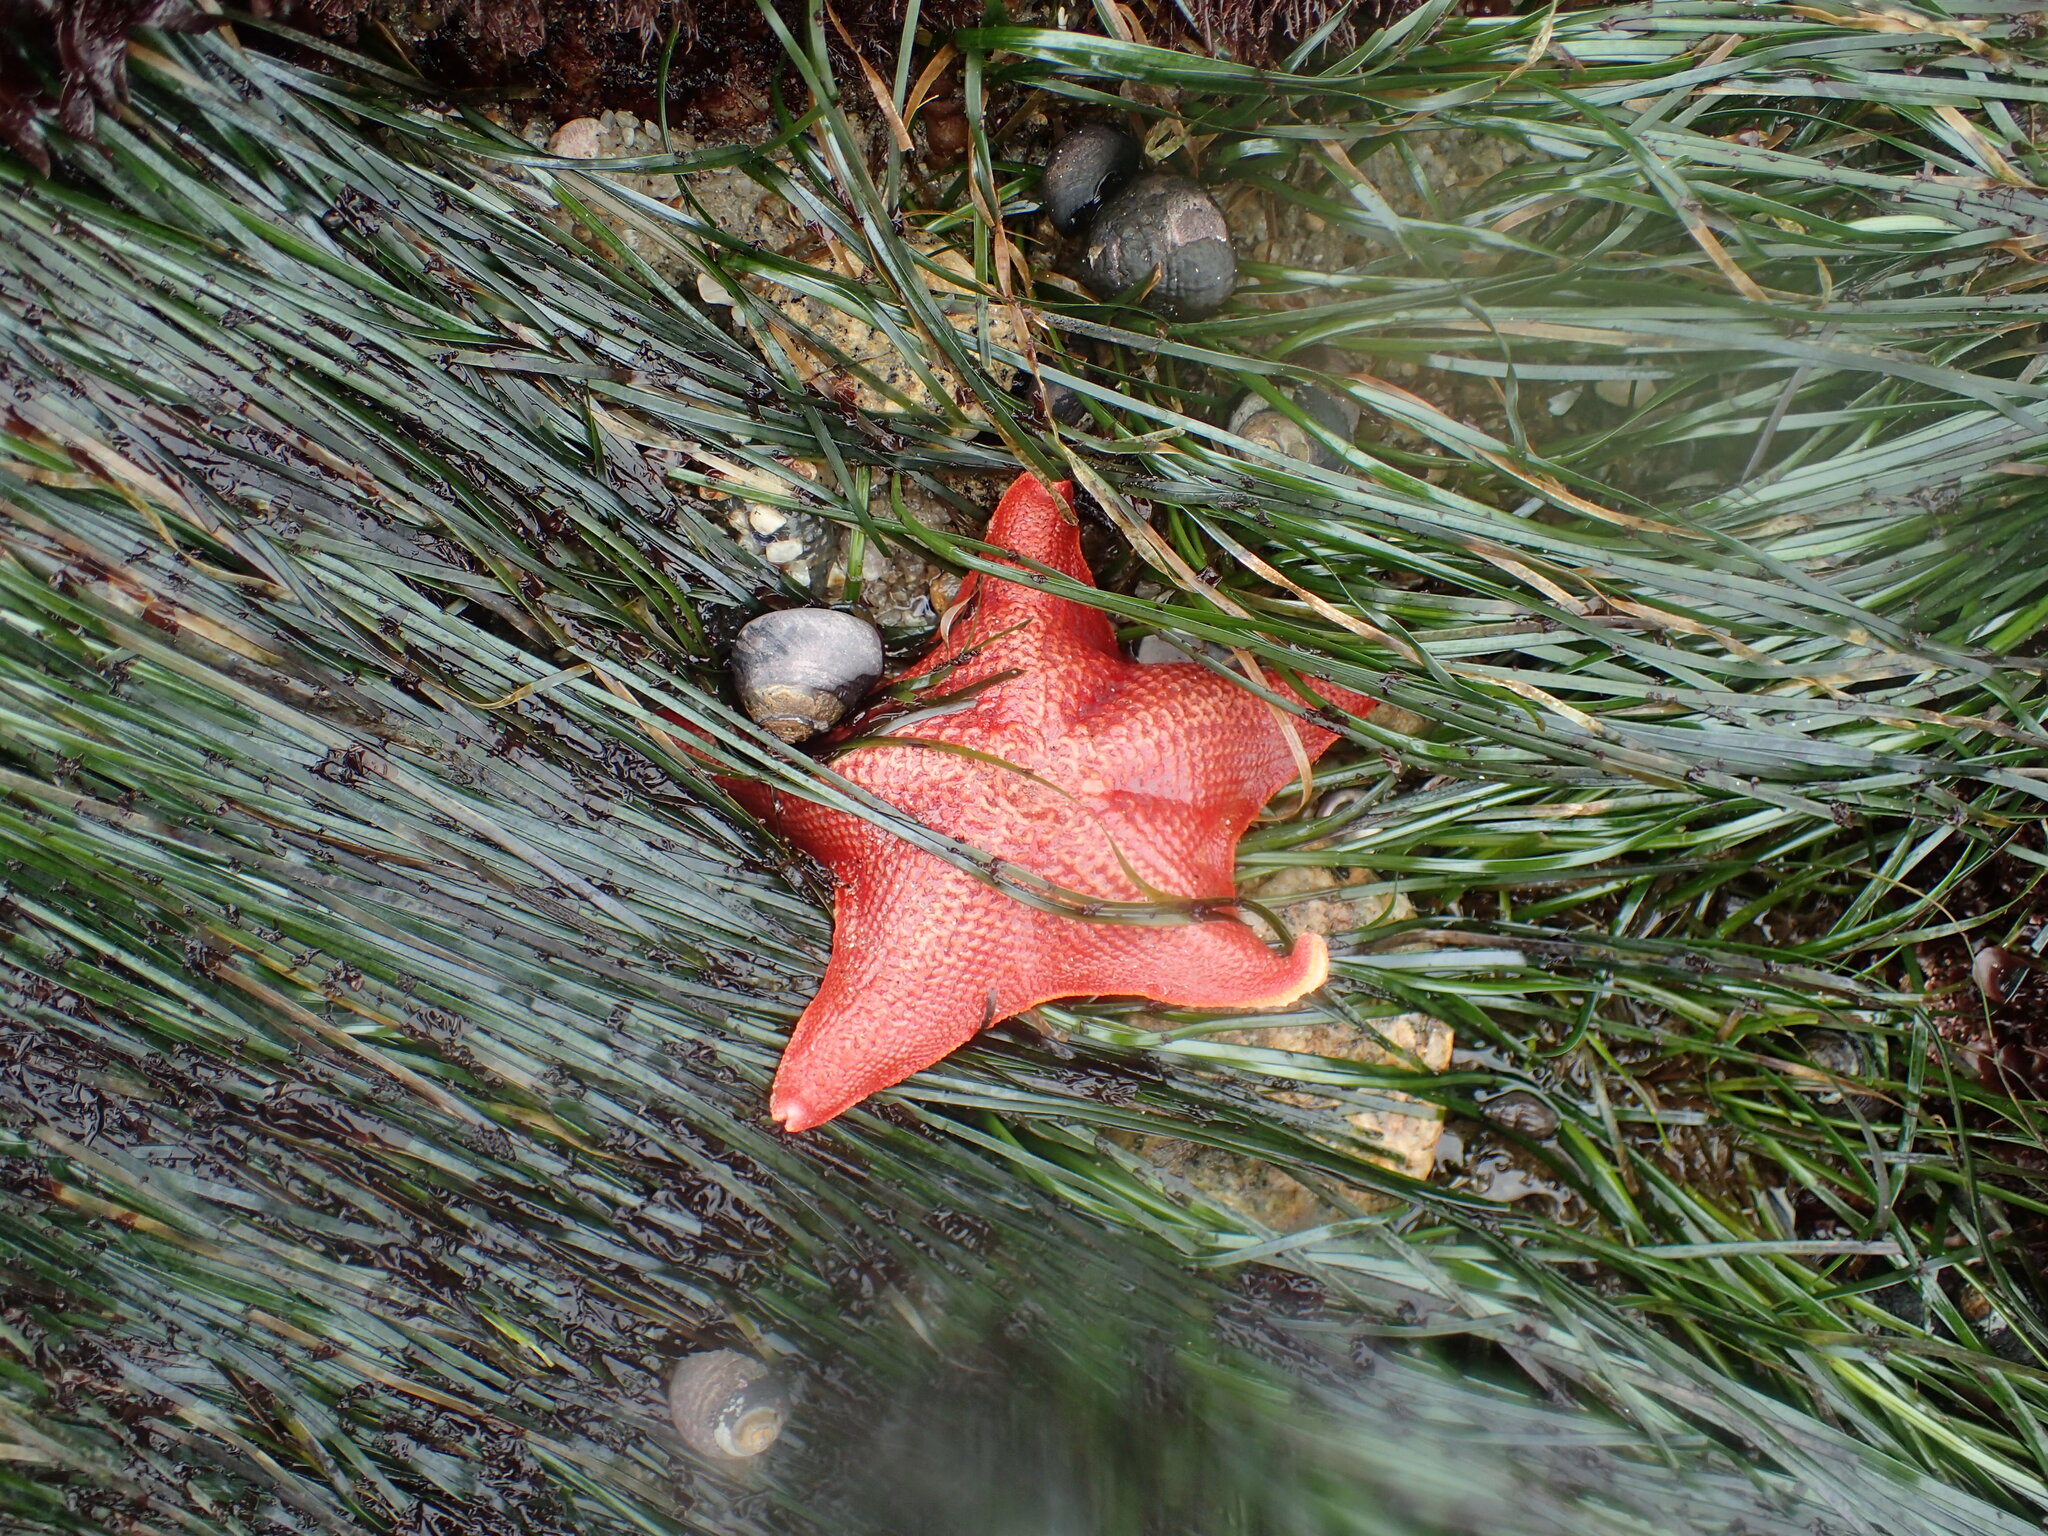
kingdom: Animalia
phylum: Echinodermata
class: Asteroidea
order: Valvatida
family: Asterinidae
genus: Patiria
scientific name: Patiria miniata
